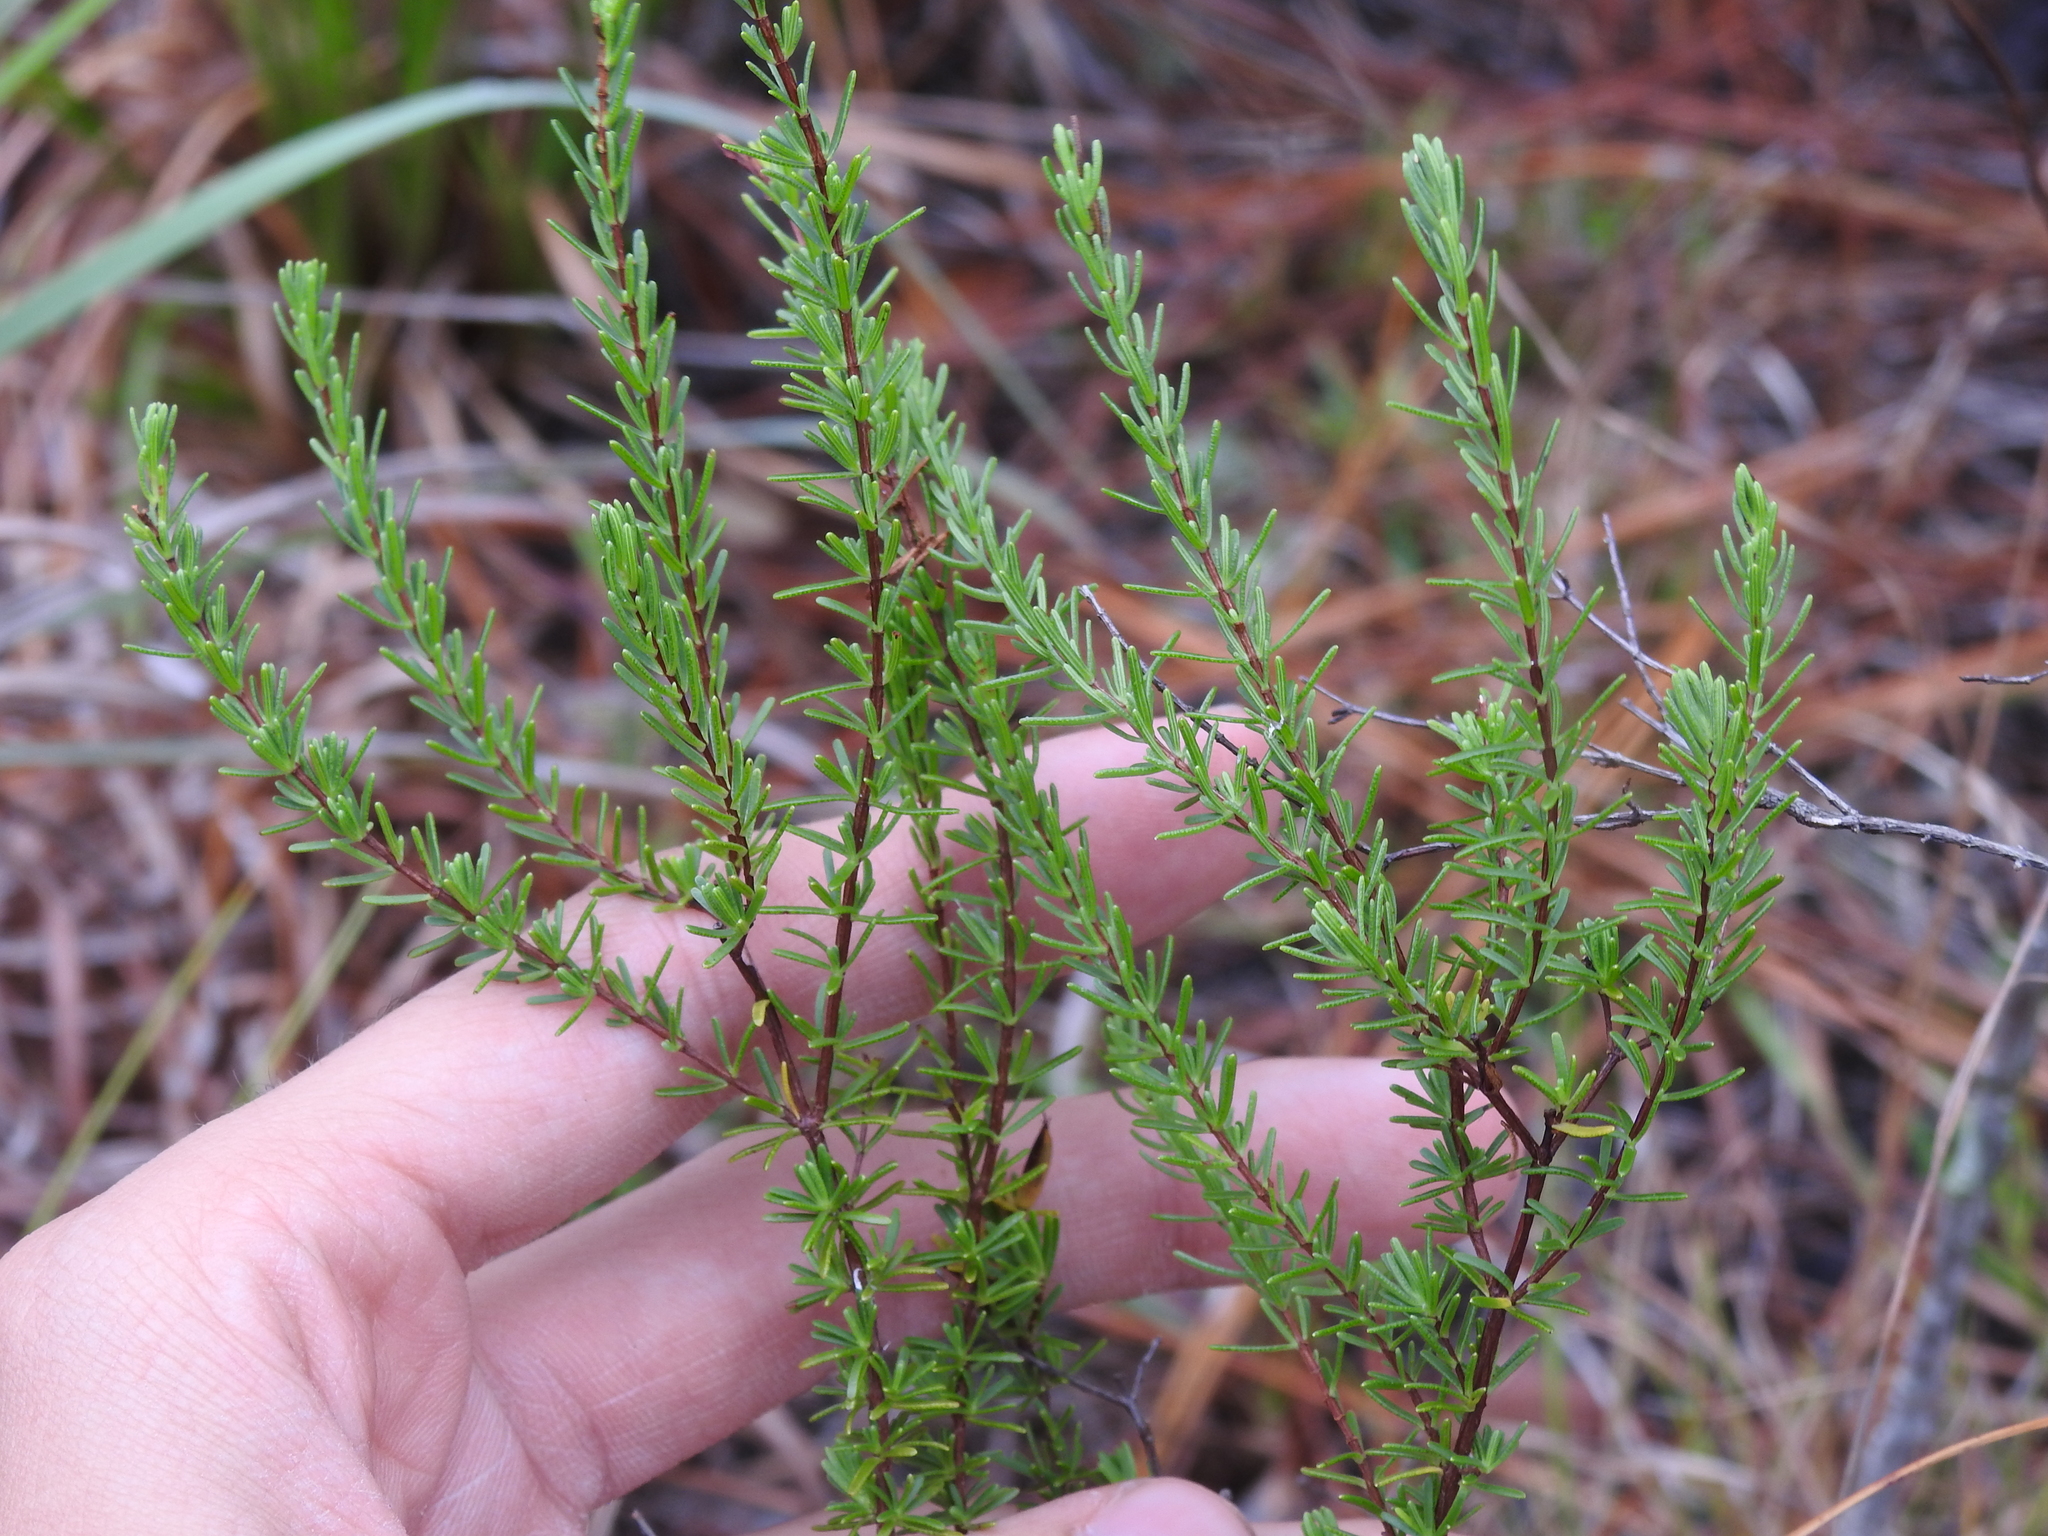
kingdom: Plantae
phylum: Tracheophyta
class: Magnoliopsida
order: Malpighiales
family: Hypericaceae
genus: Hypericum
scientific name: Hypericum tenuifolium
